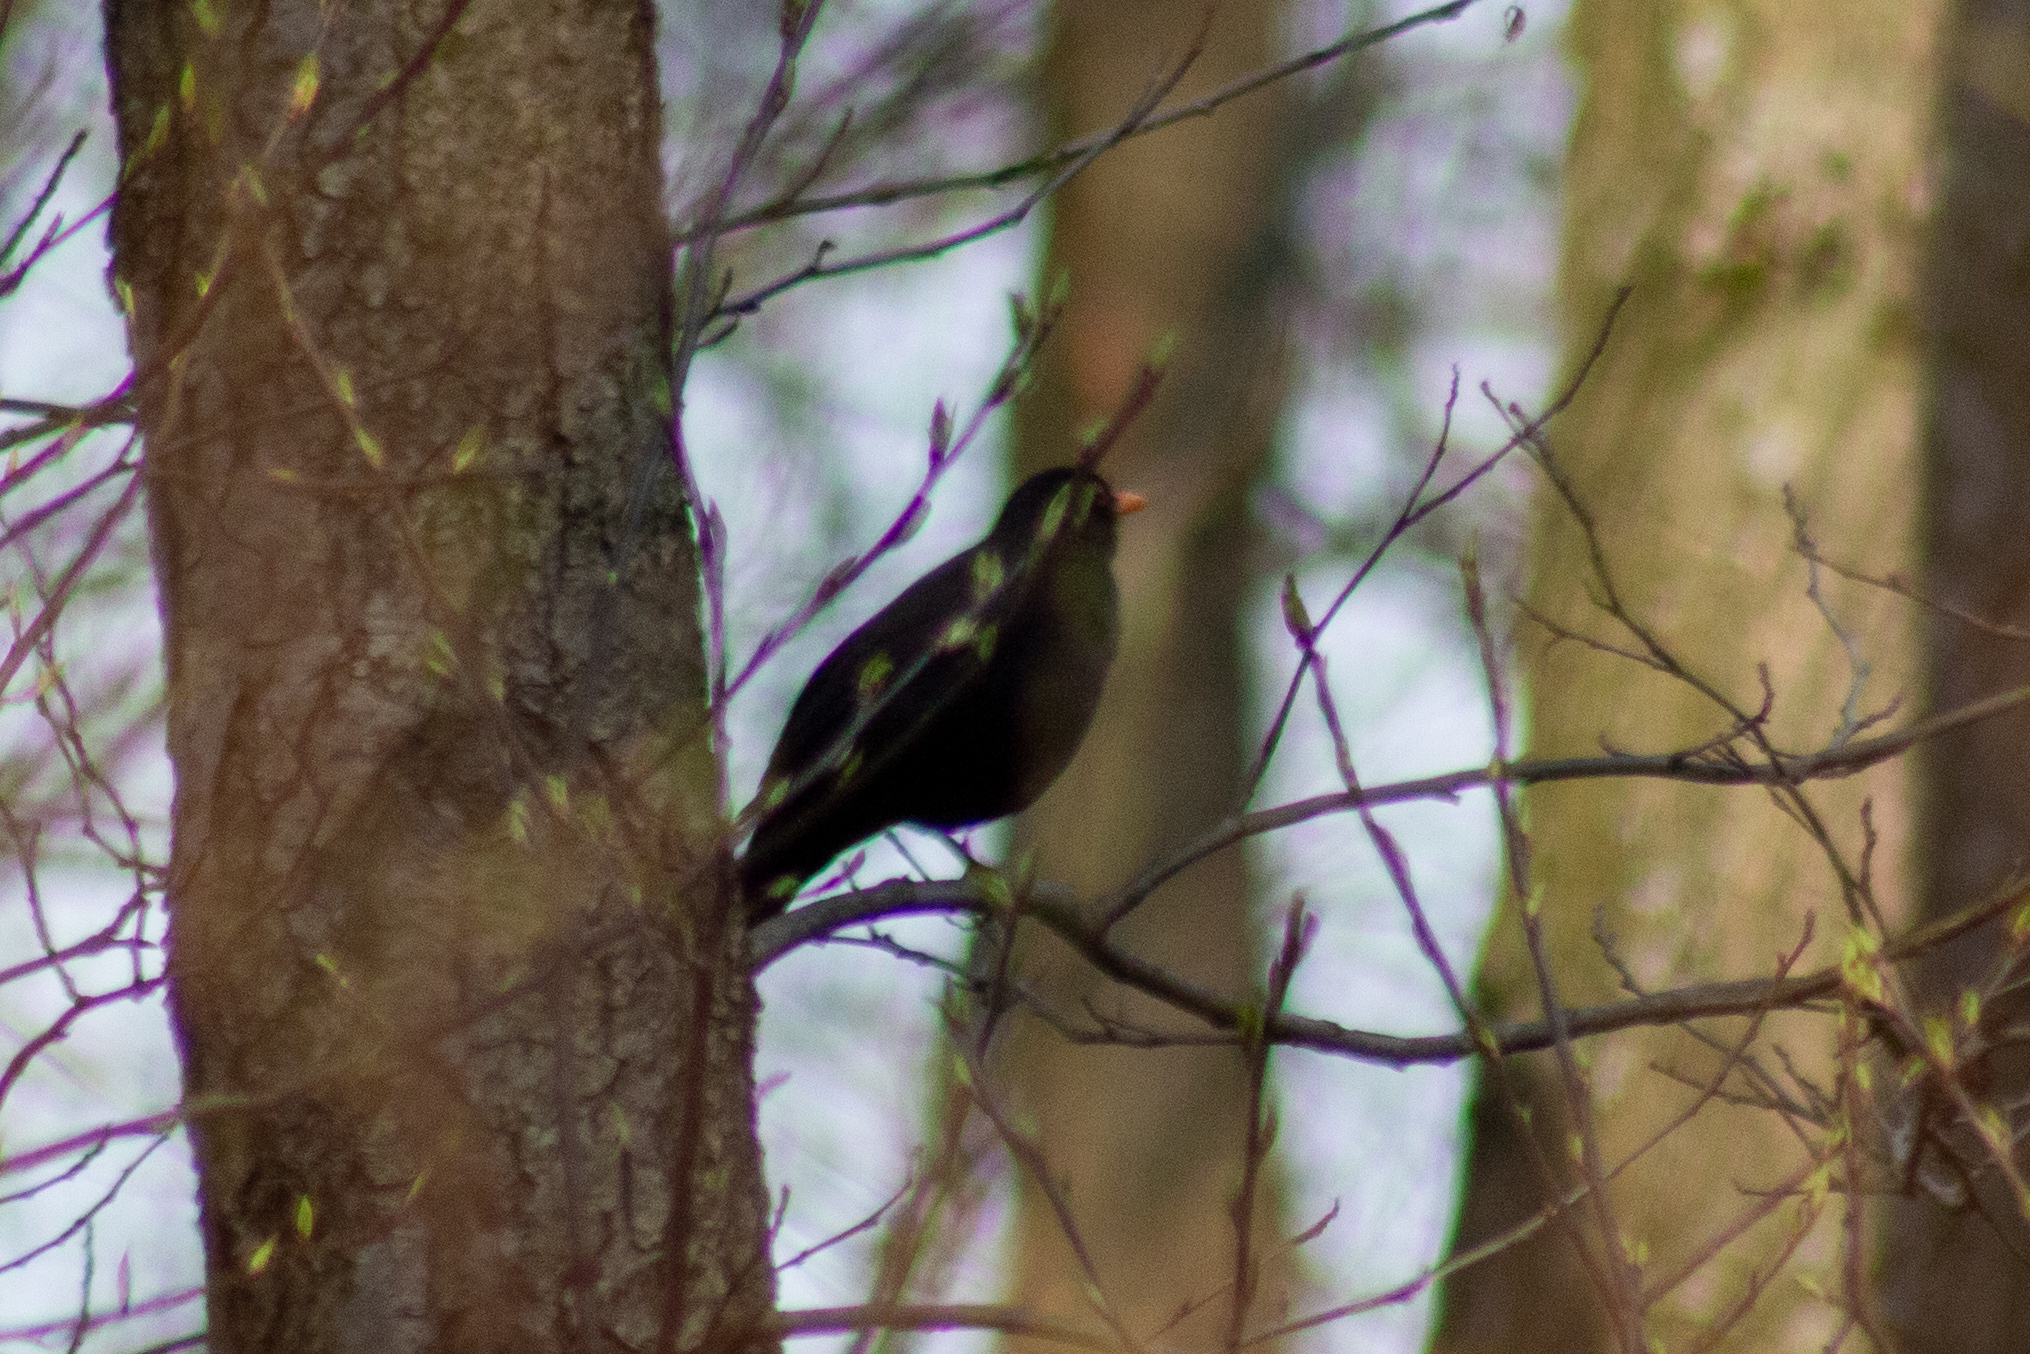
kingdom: Animalia
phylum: Chordata
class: Aves
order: Passeriformes
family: Turdidae
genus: Turdus
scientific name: Turdus merula
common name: Common blackbird
